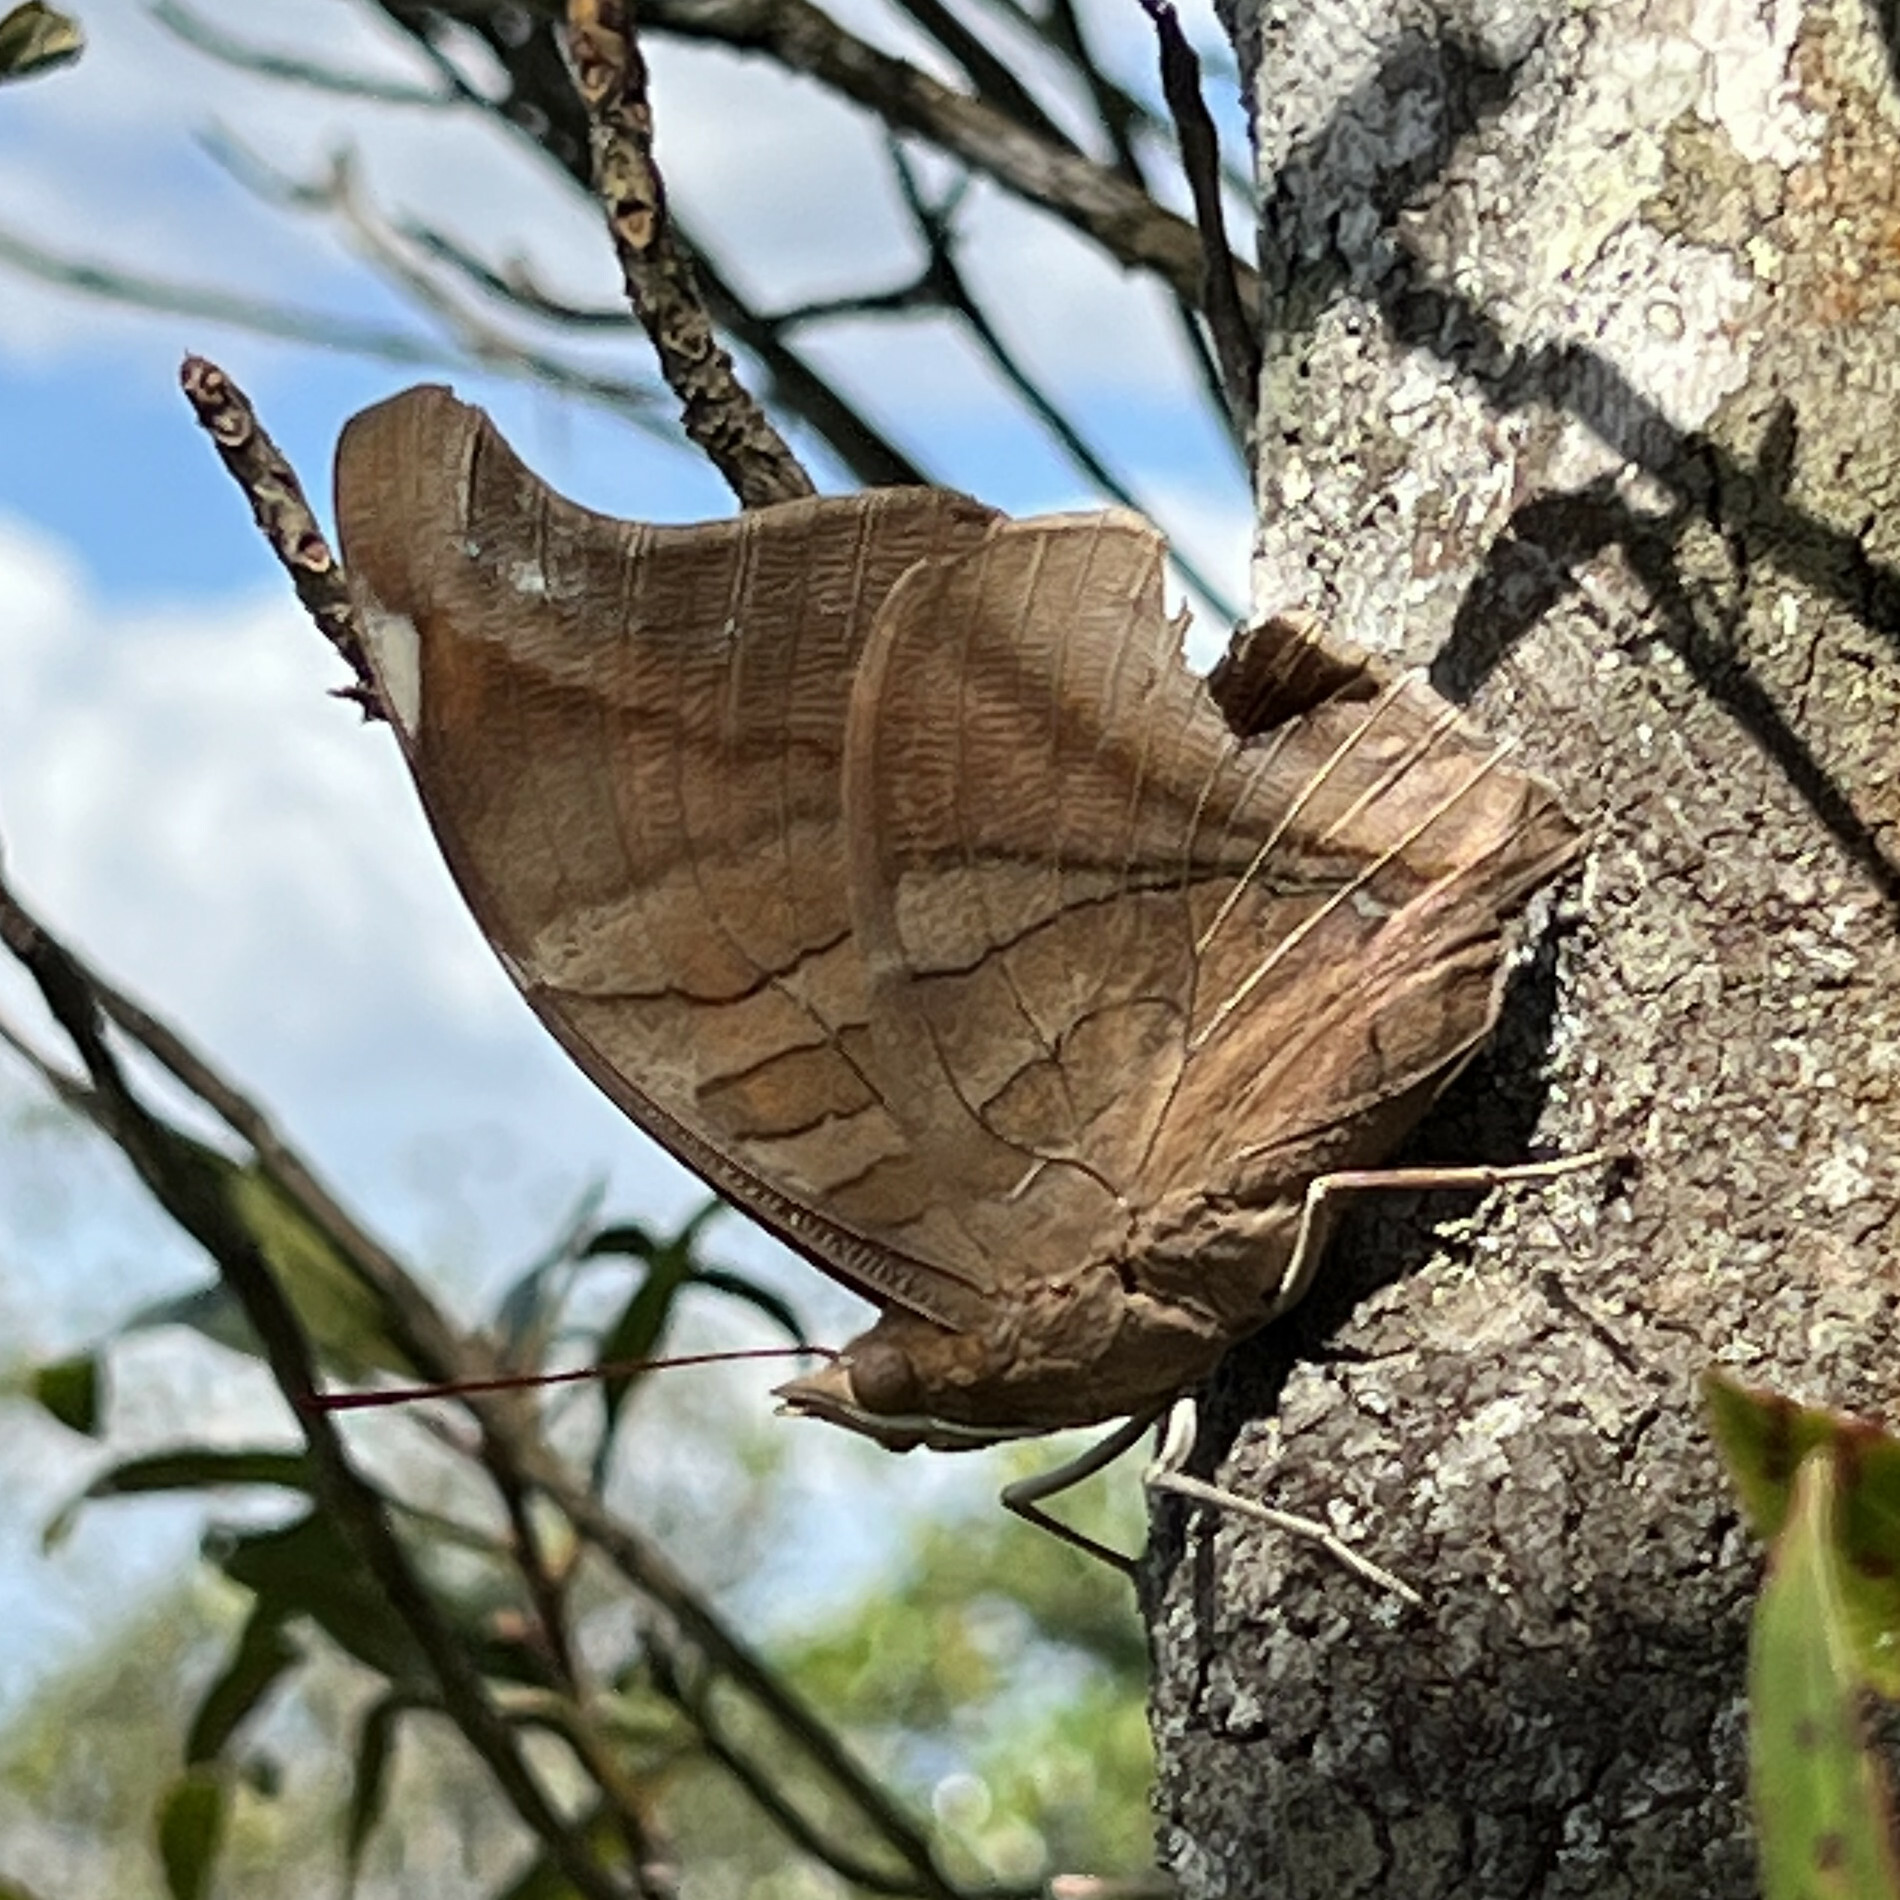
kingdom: Animalia
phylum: Arthropoda
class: Insecta
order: Lepidoptera
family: Nymphalidae
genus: Historis
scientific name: Historis odius
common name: Orion cecropian
